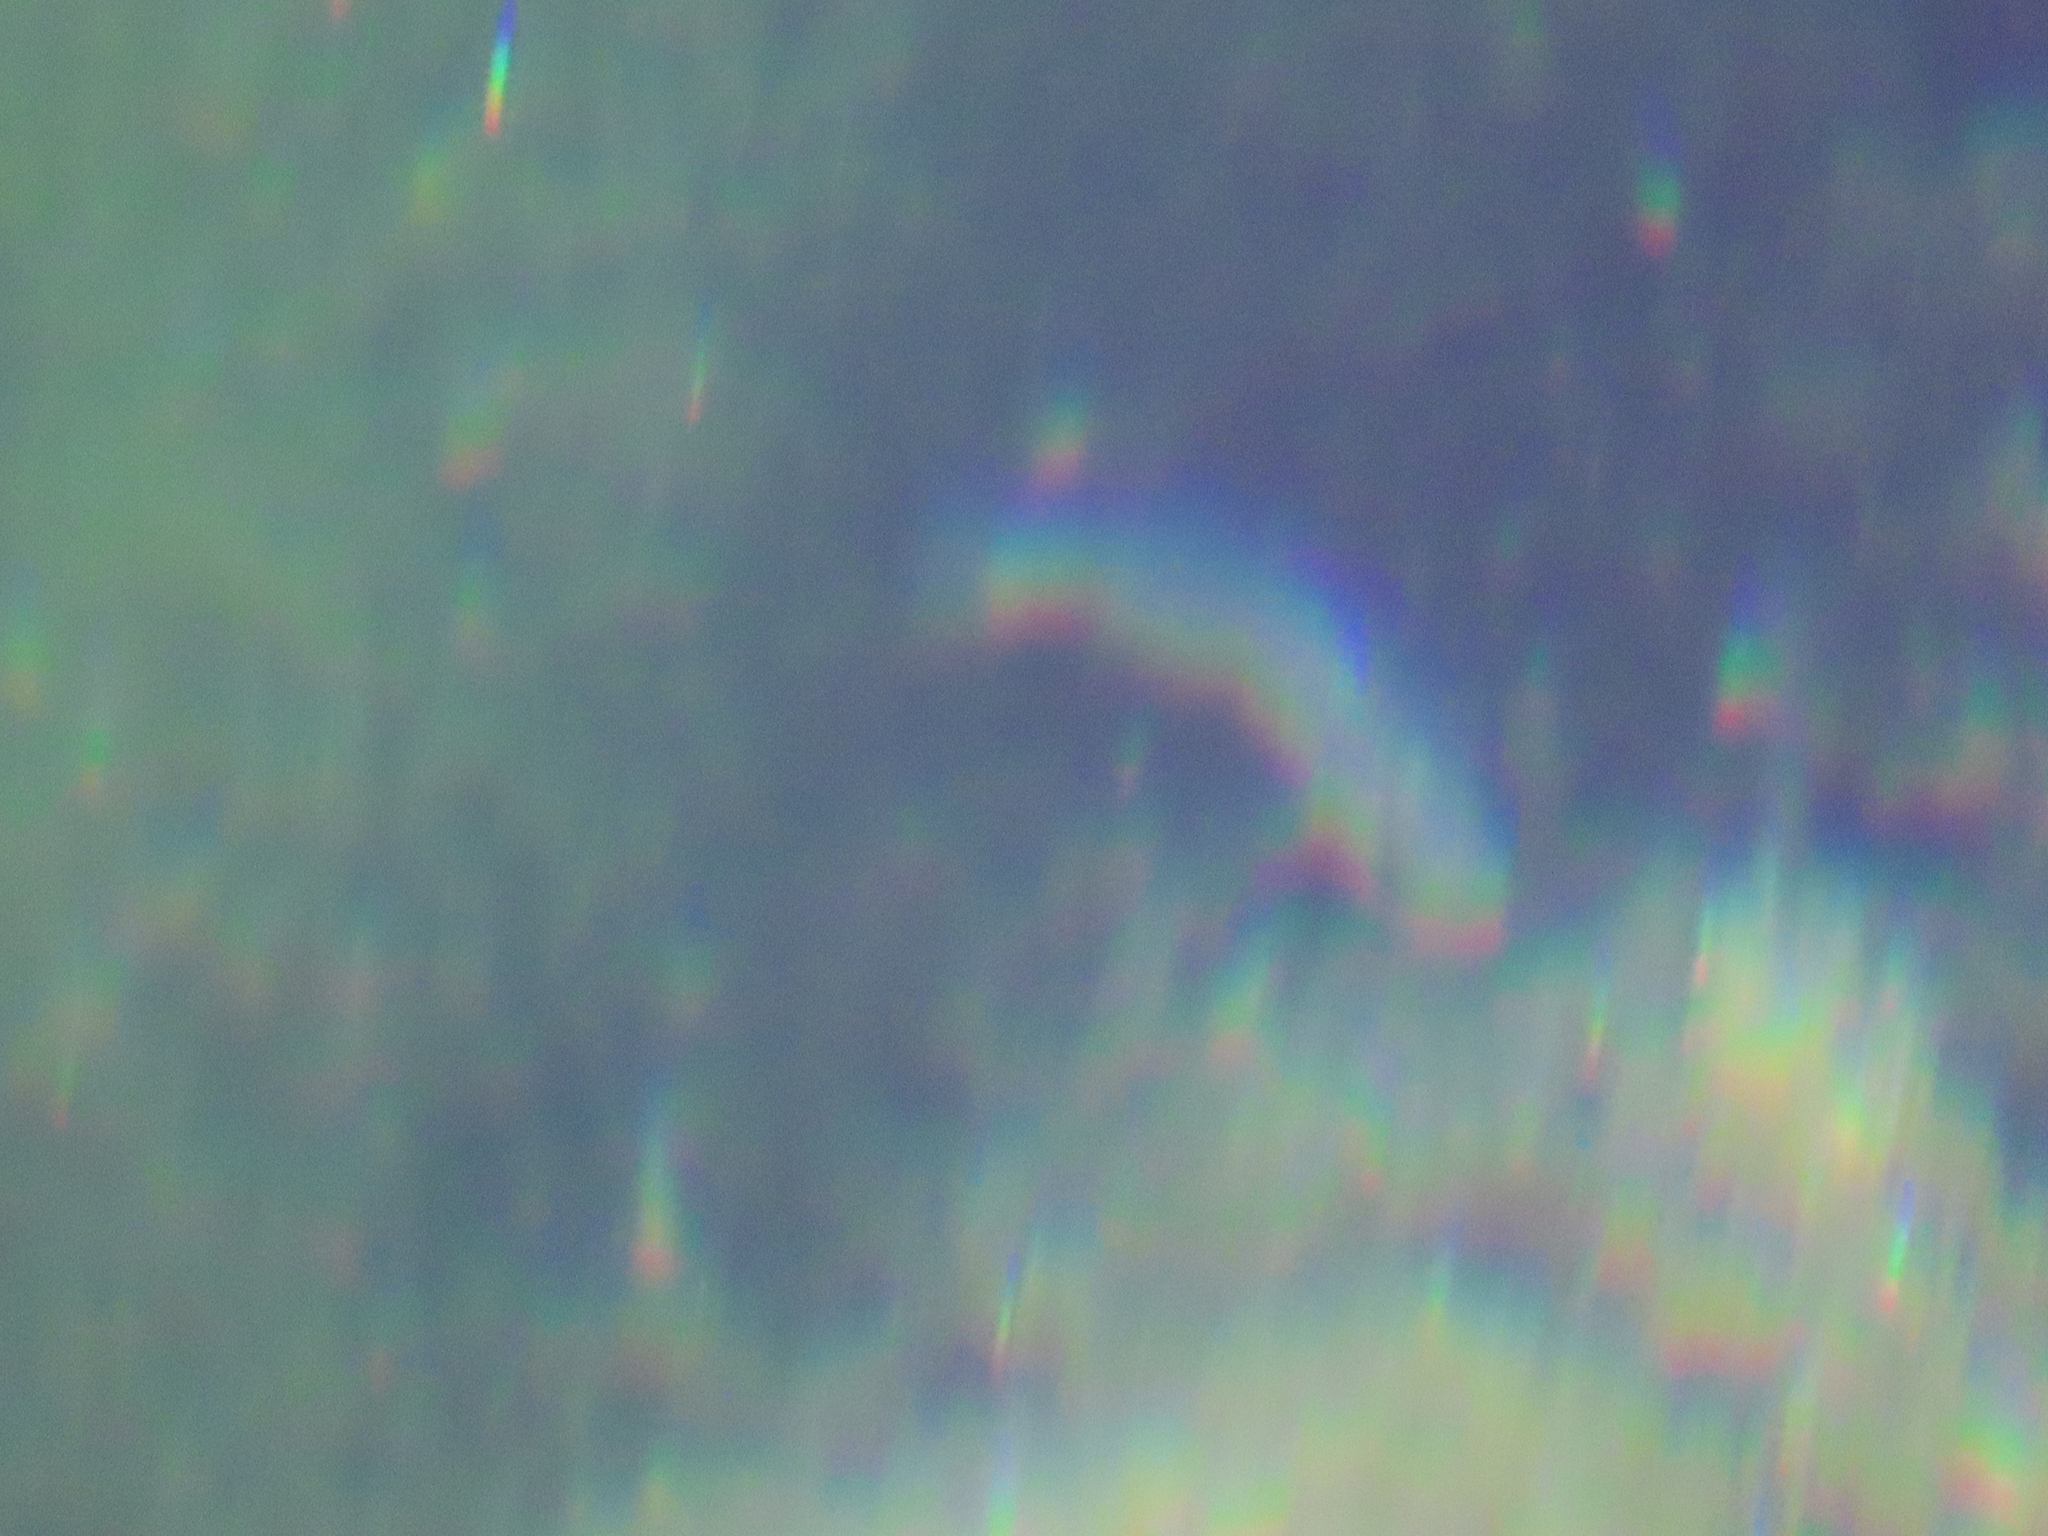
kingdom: Animalia
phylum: Chordata
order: Cyprinodontiformes
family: Cyprinodontidae
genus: Cyprinodon
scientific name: Cyprinodon nevadensis
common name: Amargosa pupfish
